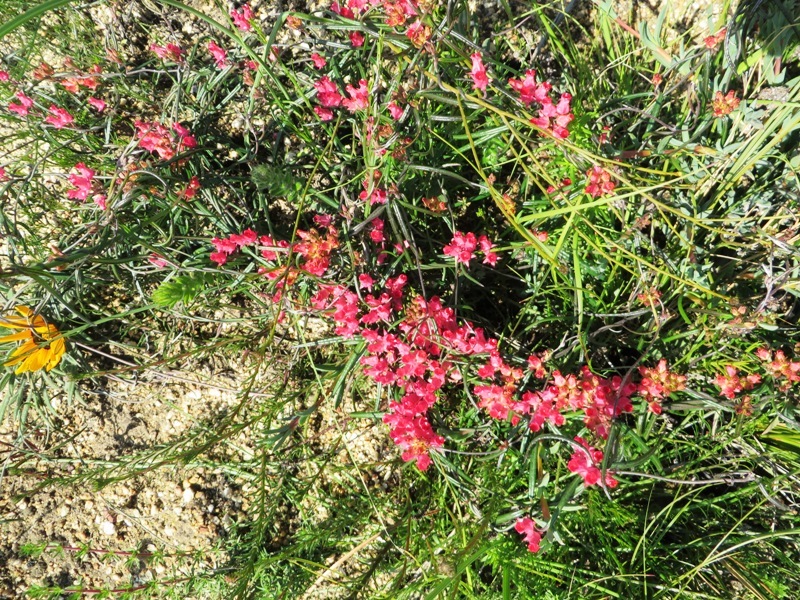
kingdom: Plantae
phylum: Tracheophyta
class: Magnoliopsida
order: Gentianales
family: Apocynaceae
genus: Microloma
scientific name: Microloma tenuifolium
